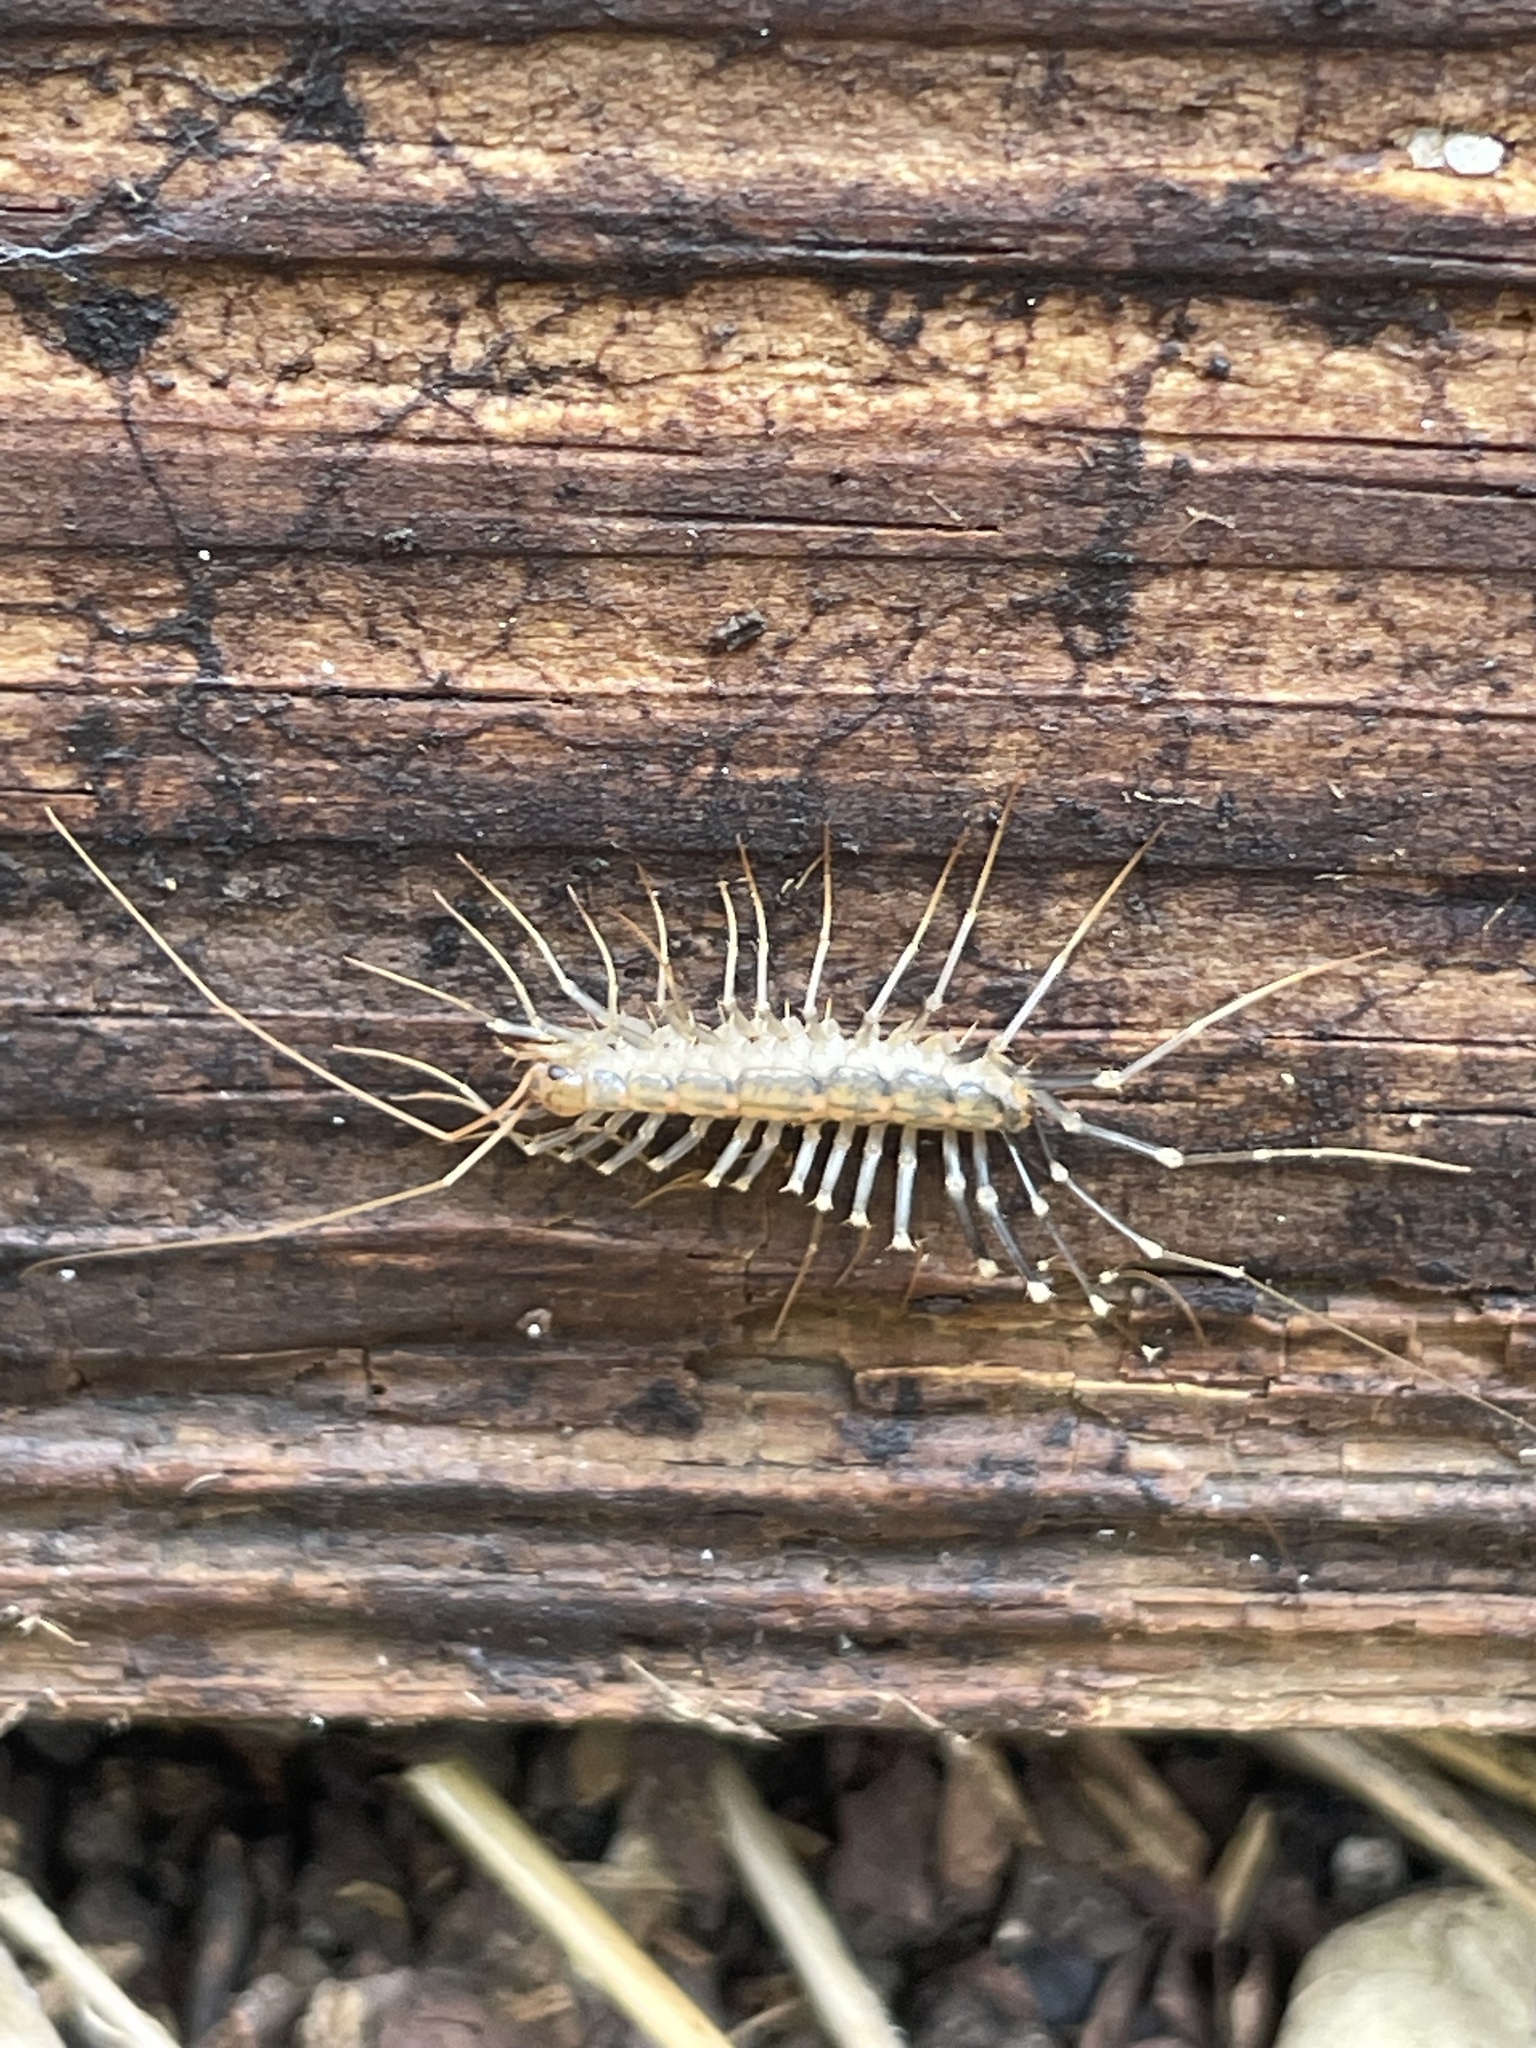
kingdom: Animalia
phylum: Arthropoda
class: Chilopoda
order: Scutigeromorpha
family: Scutigeridae
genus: Scutigera
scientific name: Scutigera coleoptrata
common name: House centipede
